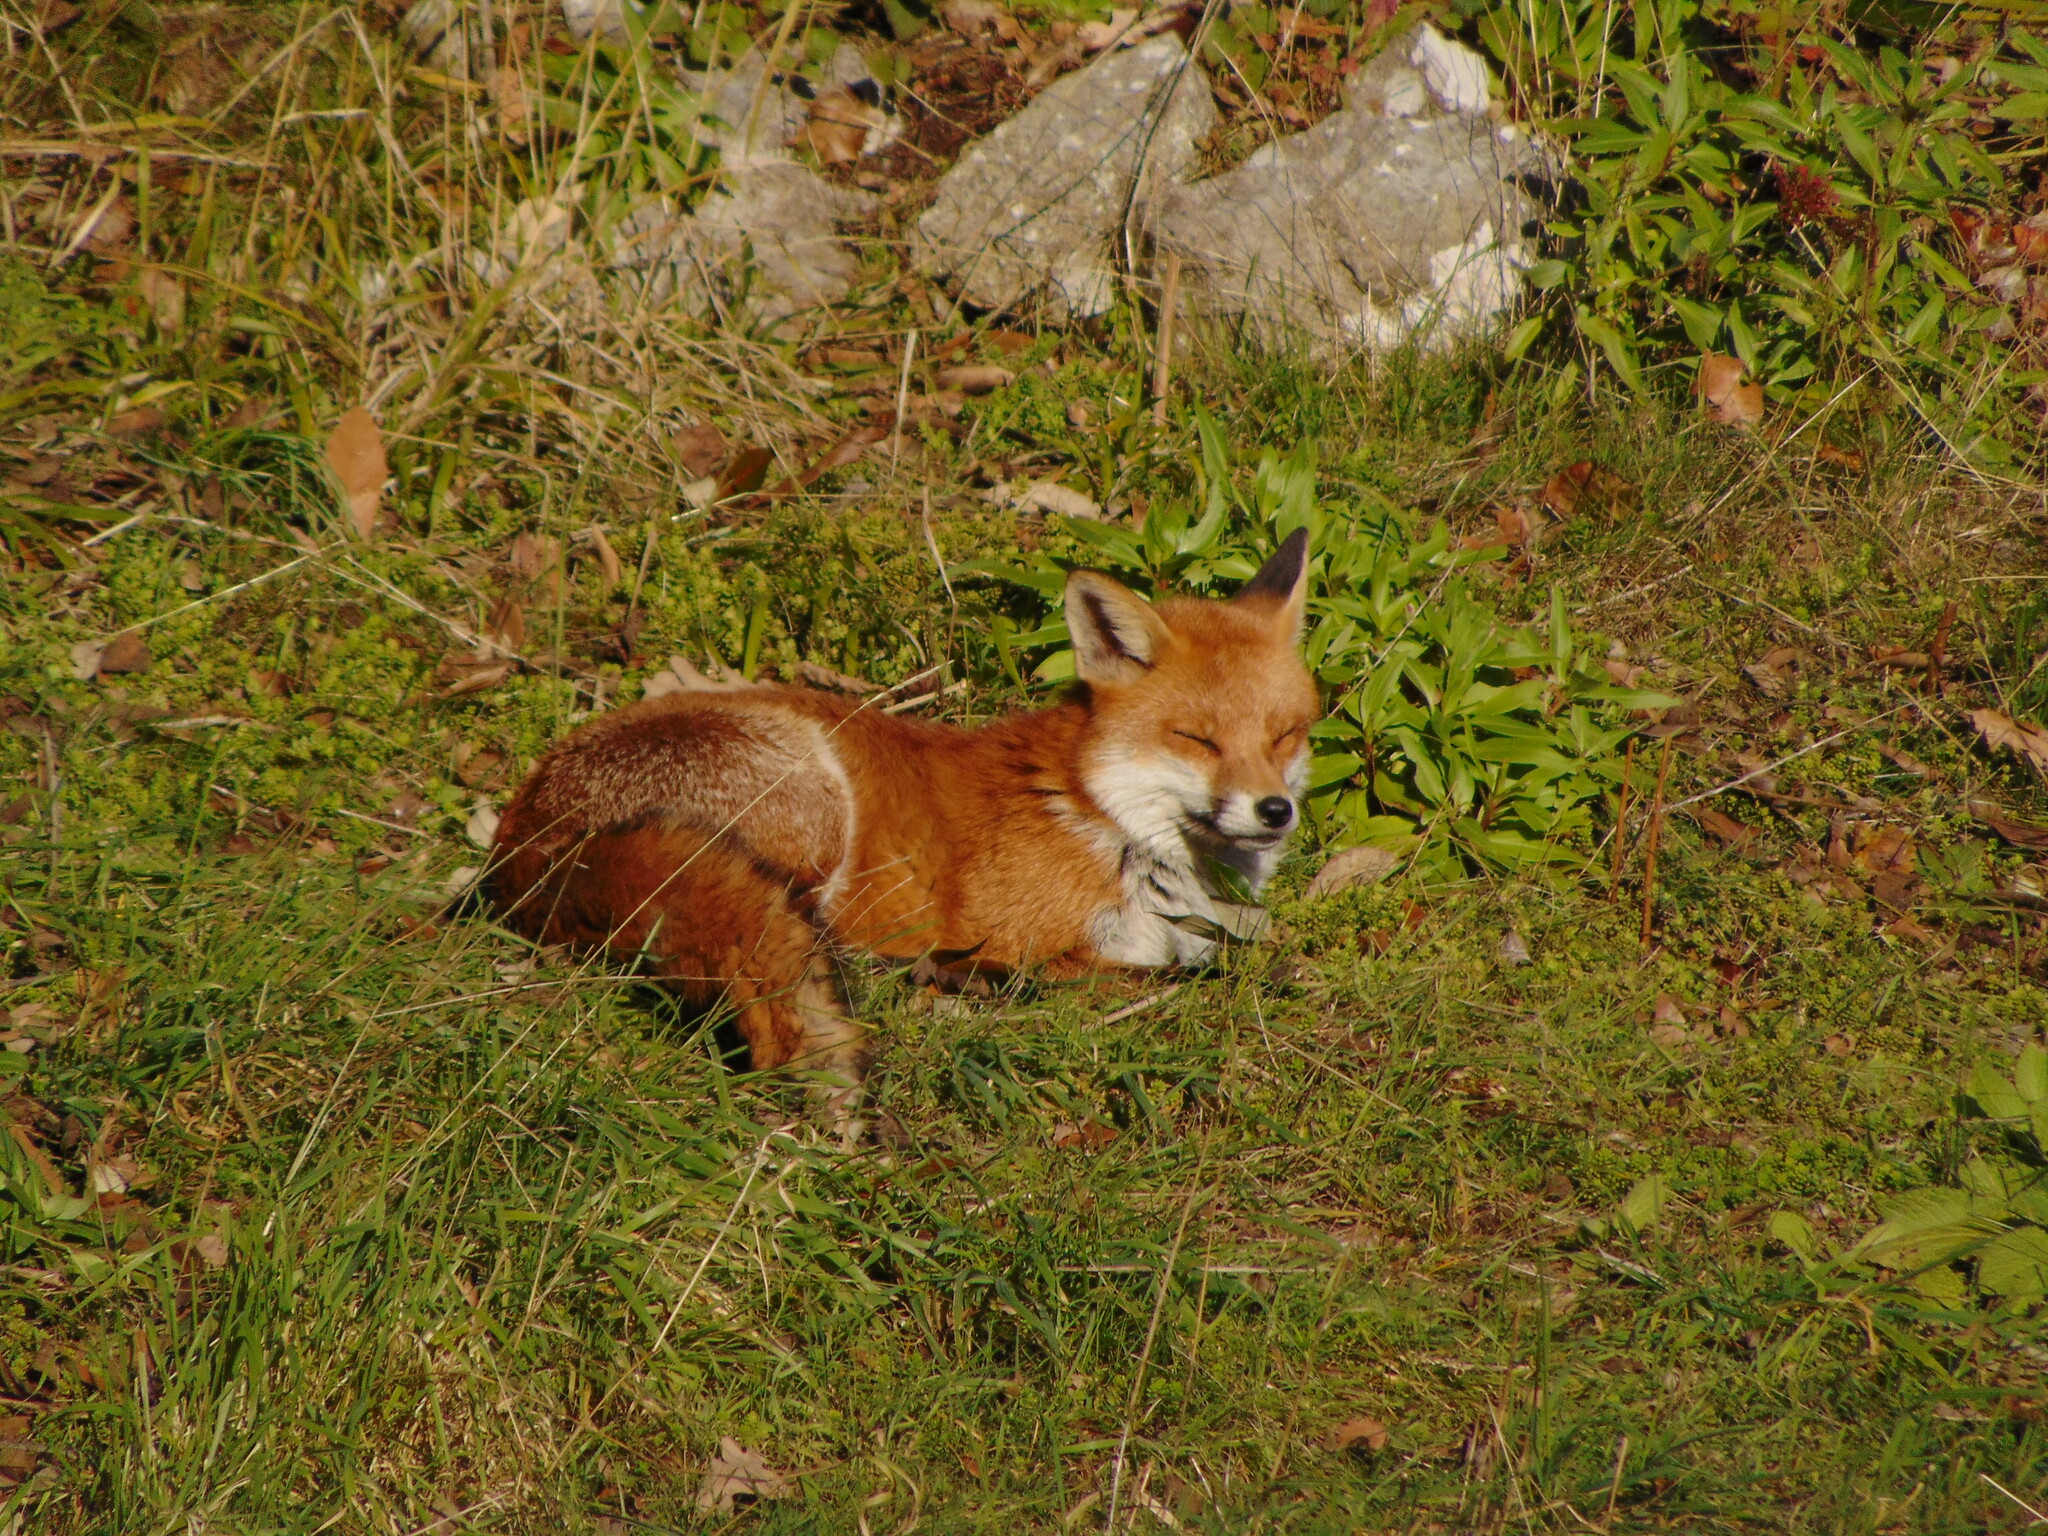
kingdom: Animalia
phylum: Chordata
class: Mammalia
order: Carnivora
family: Canidae
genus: Vulpes
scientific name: Vulpes vulpes
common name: Red fox
